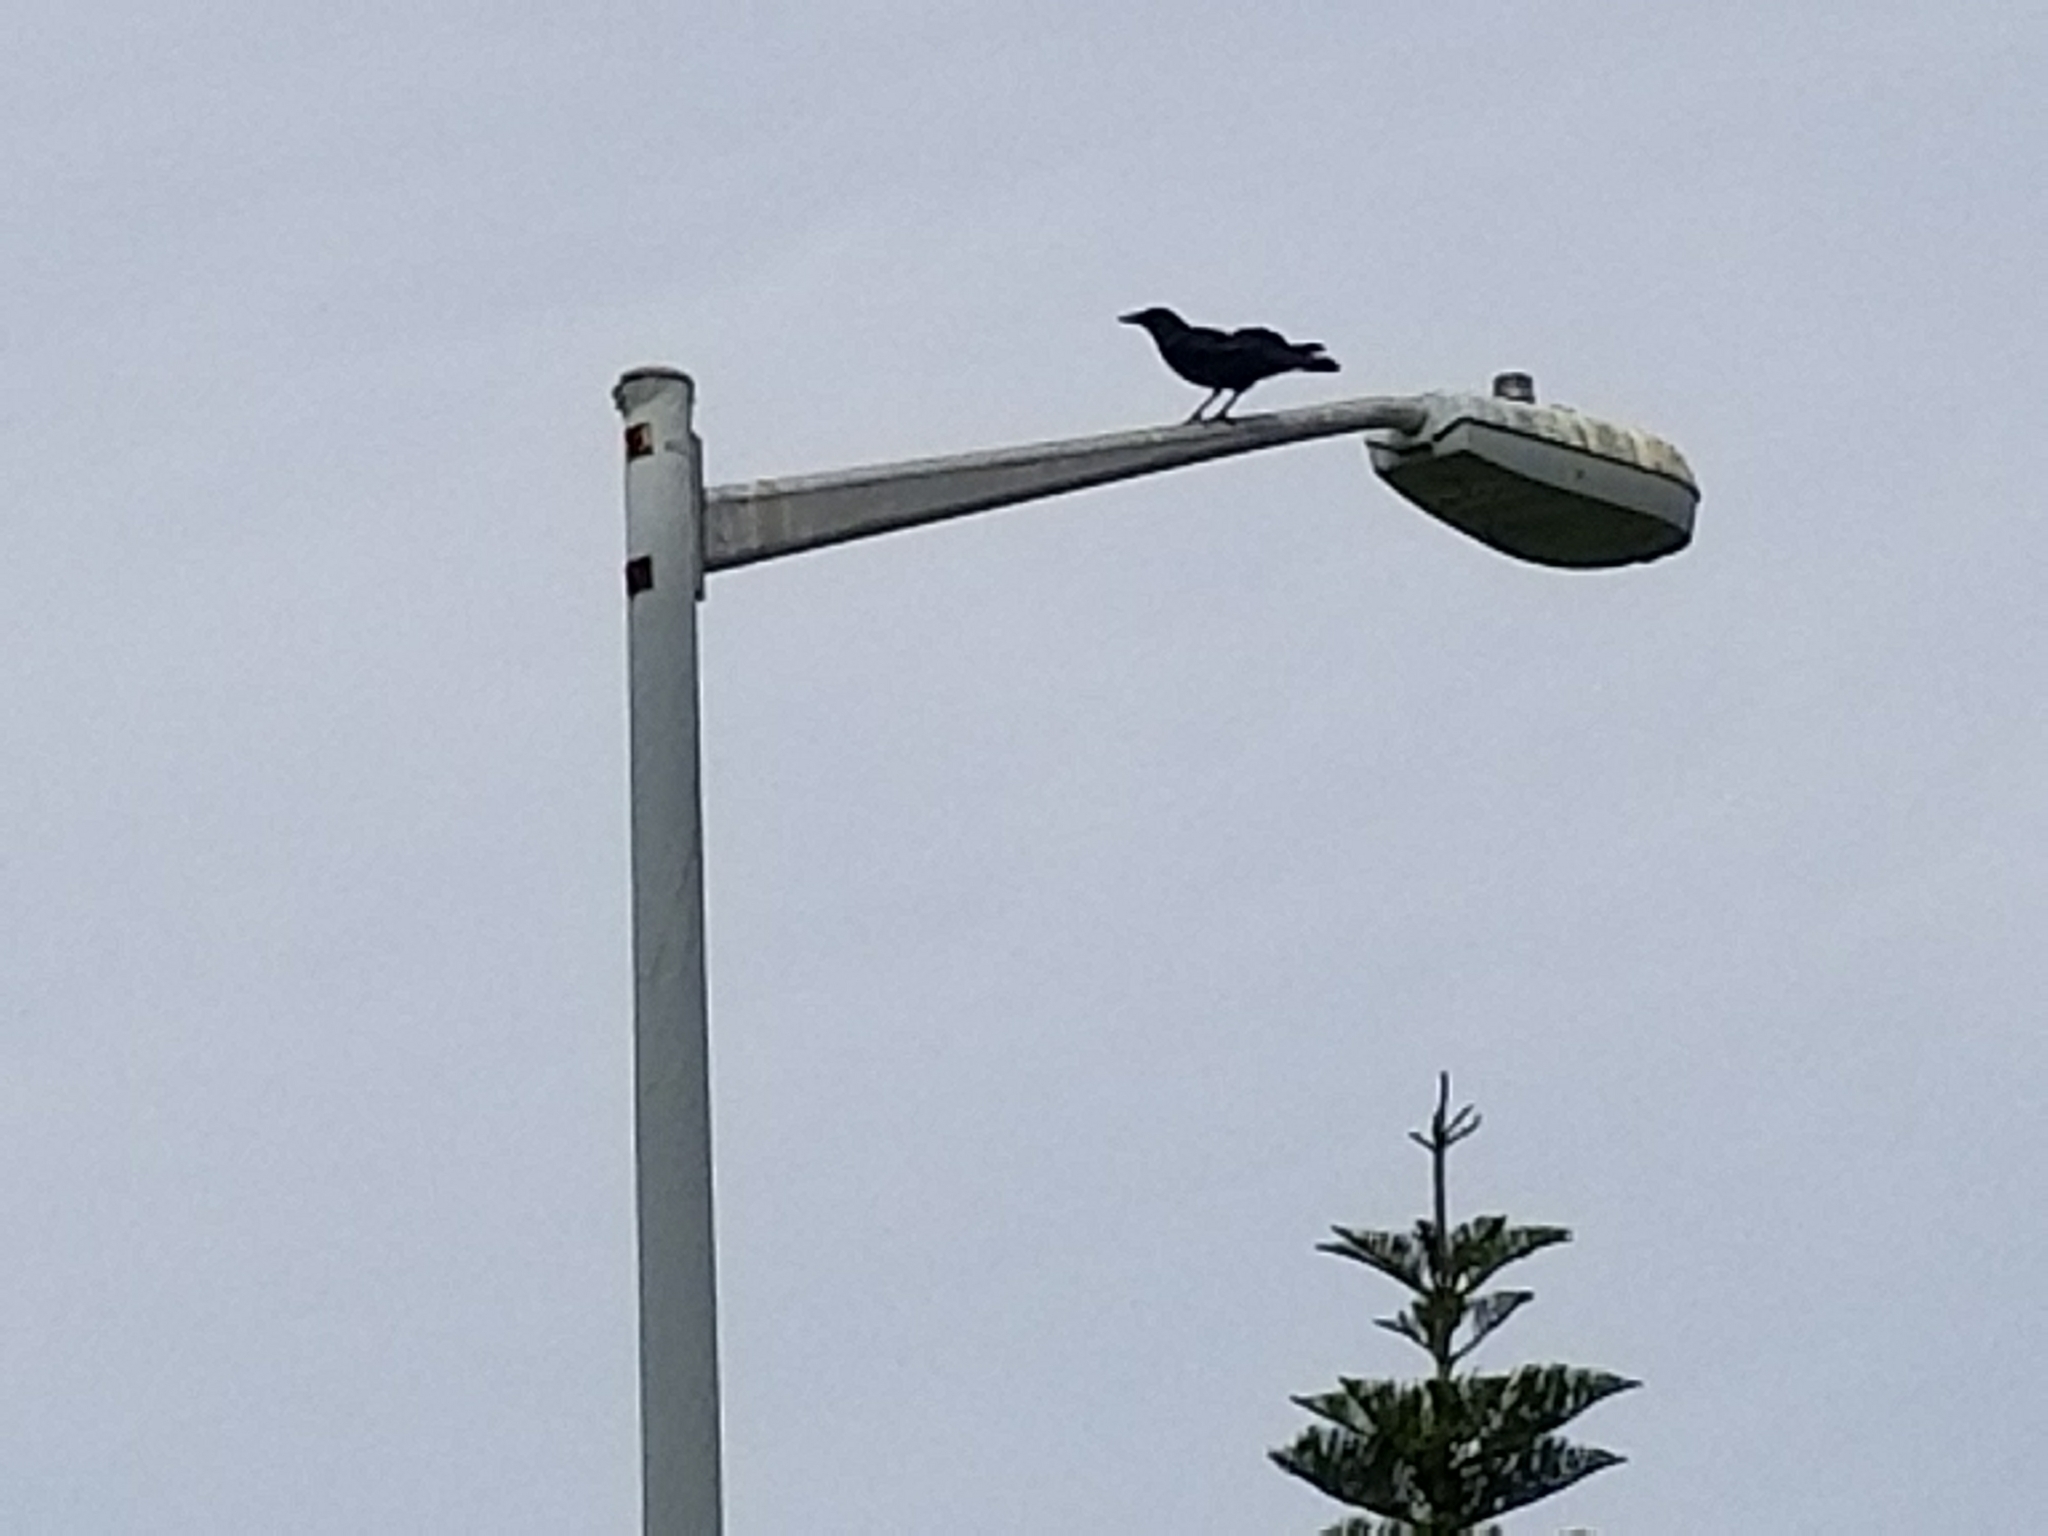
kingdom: Animalia
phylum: Chordata
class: Aves
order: Passeriformes
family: Corvidae
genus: Corvus
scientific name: Corvus brachyrhynchos
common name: American crow
